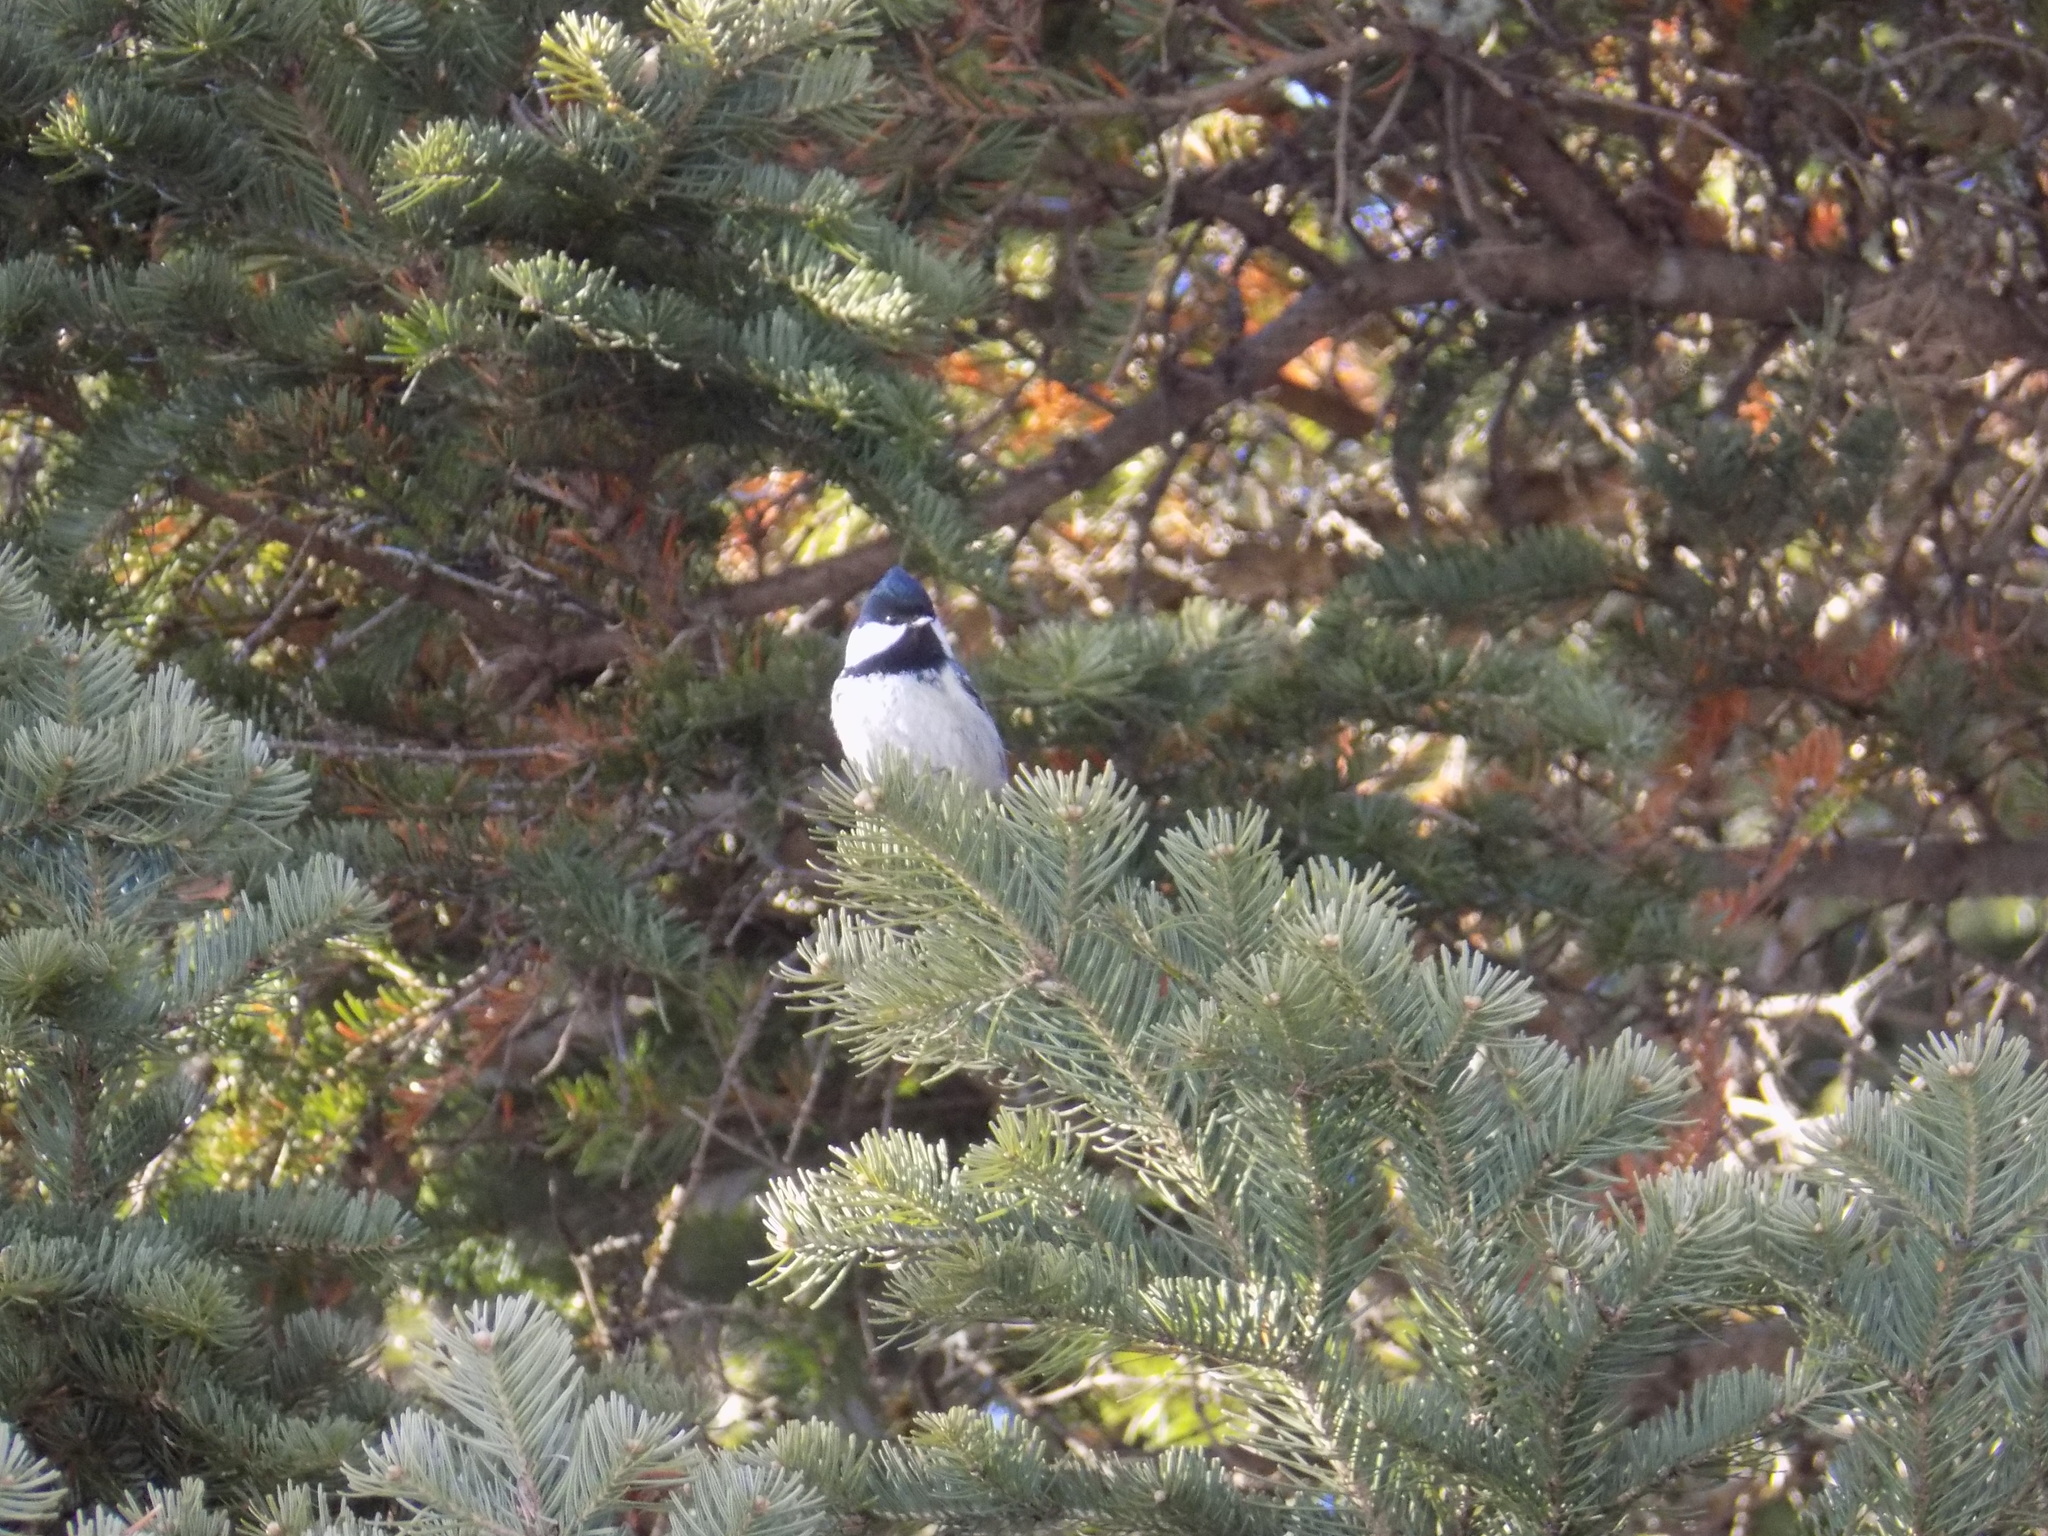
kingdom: Animalia
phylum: Chordata
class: Aves
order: Passeriformes
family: Paridae
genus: Periparus
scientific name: Periparus ater
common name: Coal tit
